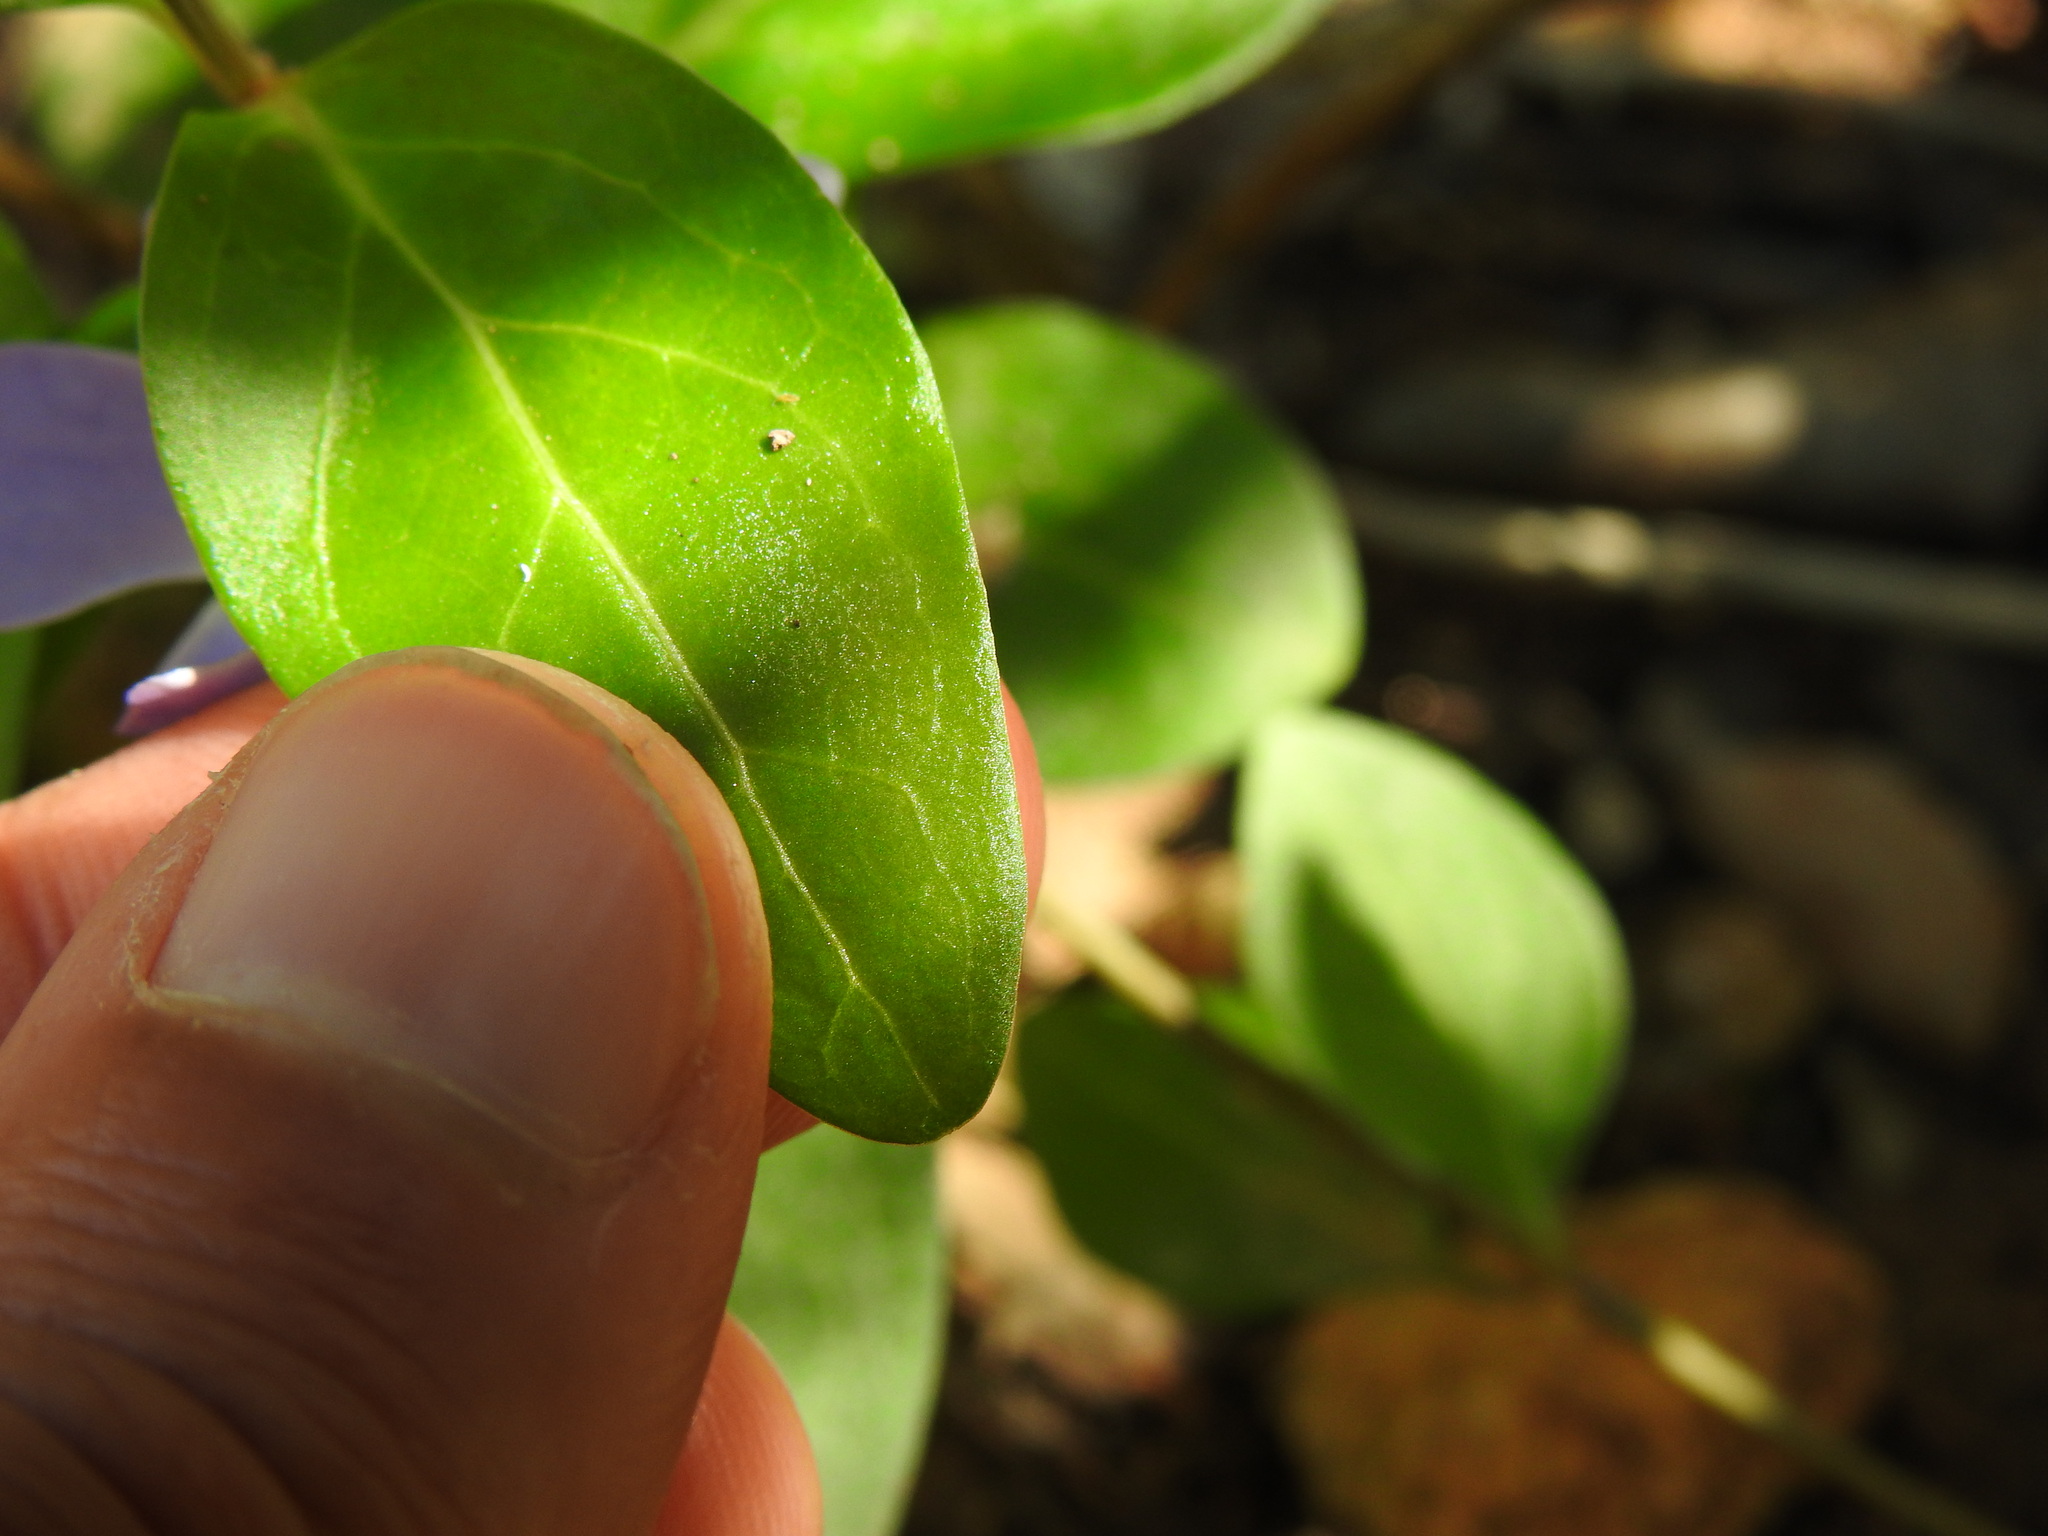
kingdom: Plantae
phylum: Tracheophyta
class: Magnoliopsida
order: Gentianales
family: Apocynaceae
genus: Vinca
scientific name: Vinca difformis
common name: Intermediate periwinkle
